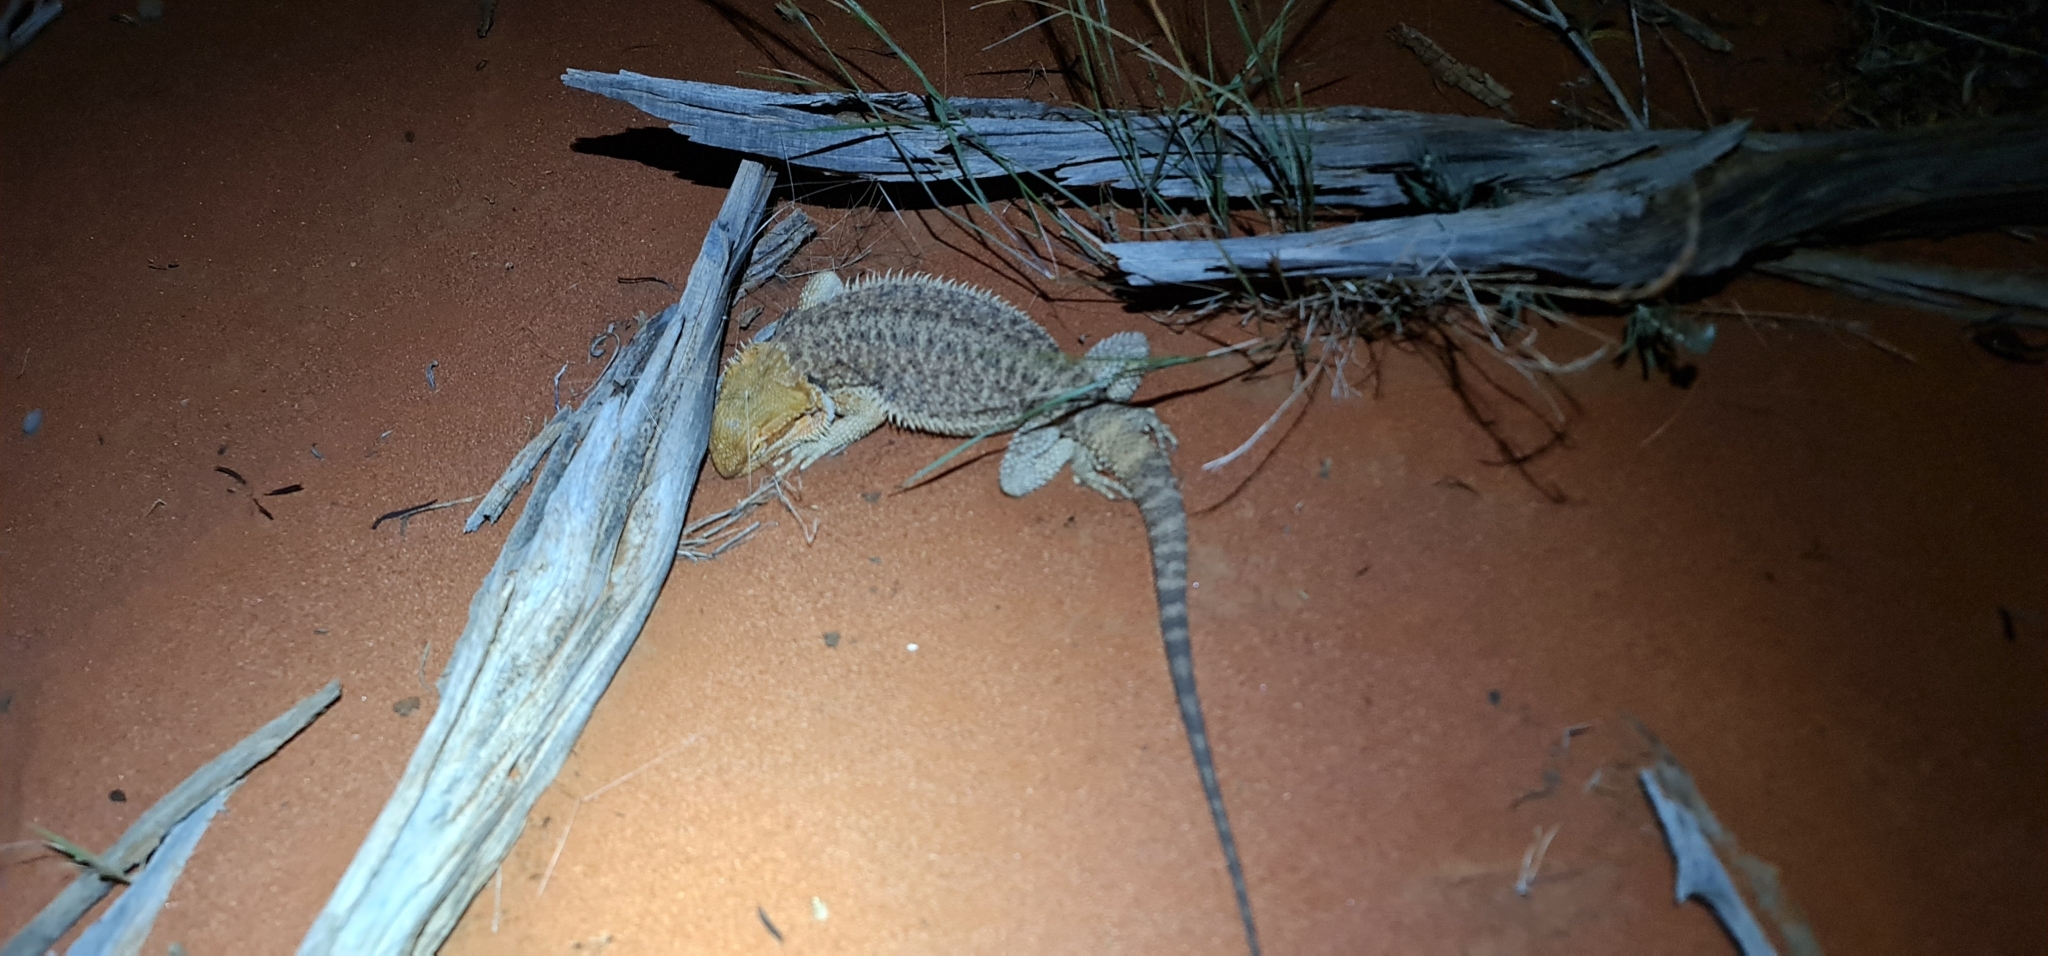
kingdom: Animalia
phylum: Chordata
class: Squamata
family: Agamidae
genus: Pogona
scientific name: Pogona vitticeps
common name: Central bearded dragon
